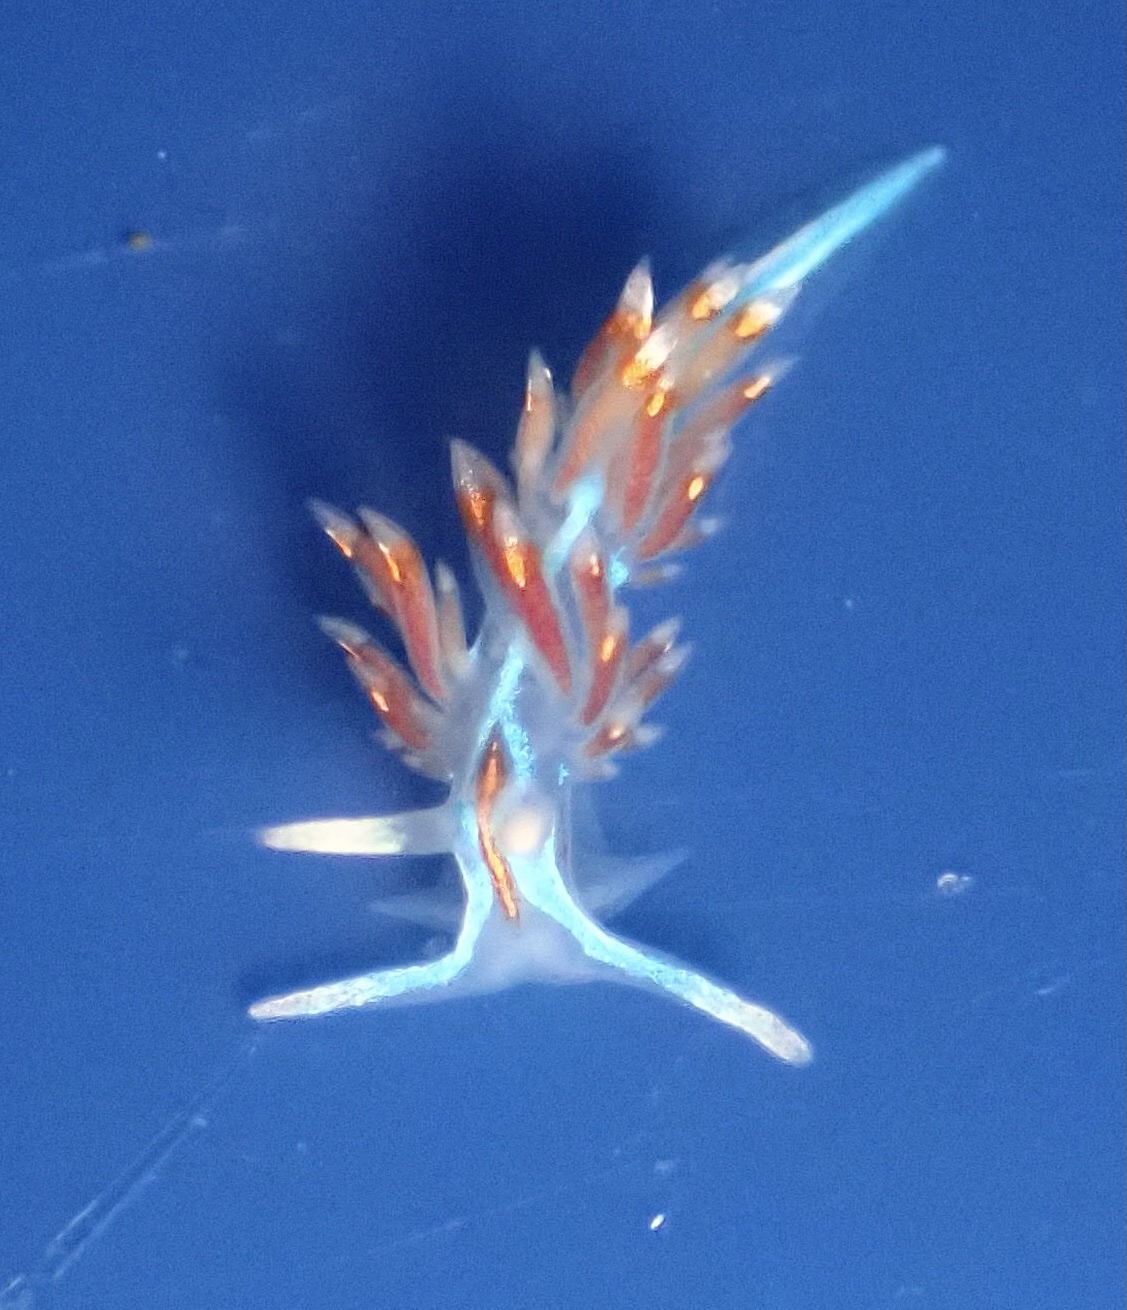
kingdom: Animalia
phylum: Mollusca
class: Gastropoda
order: Nudibranchia
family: Myrrhinidae
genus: Hermissenda
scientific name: Hermissenda opalescens
